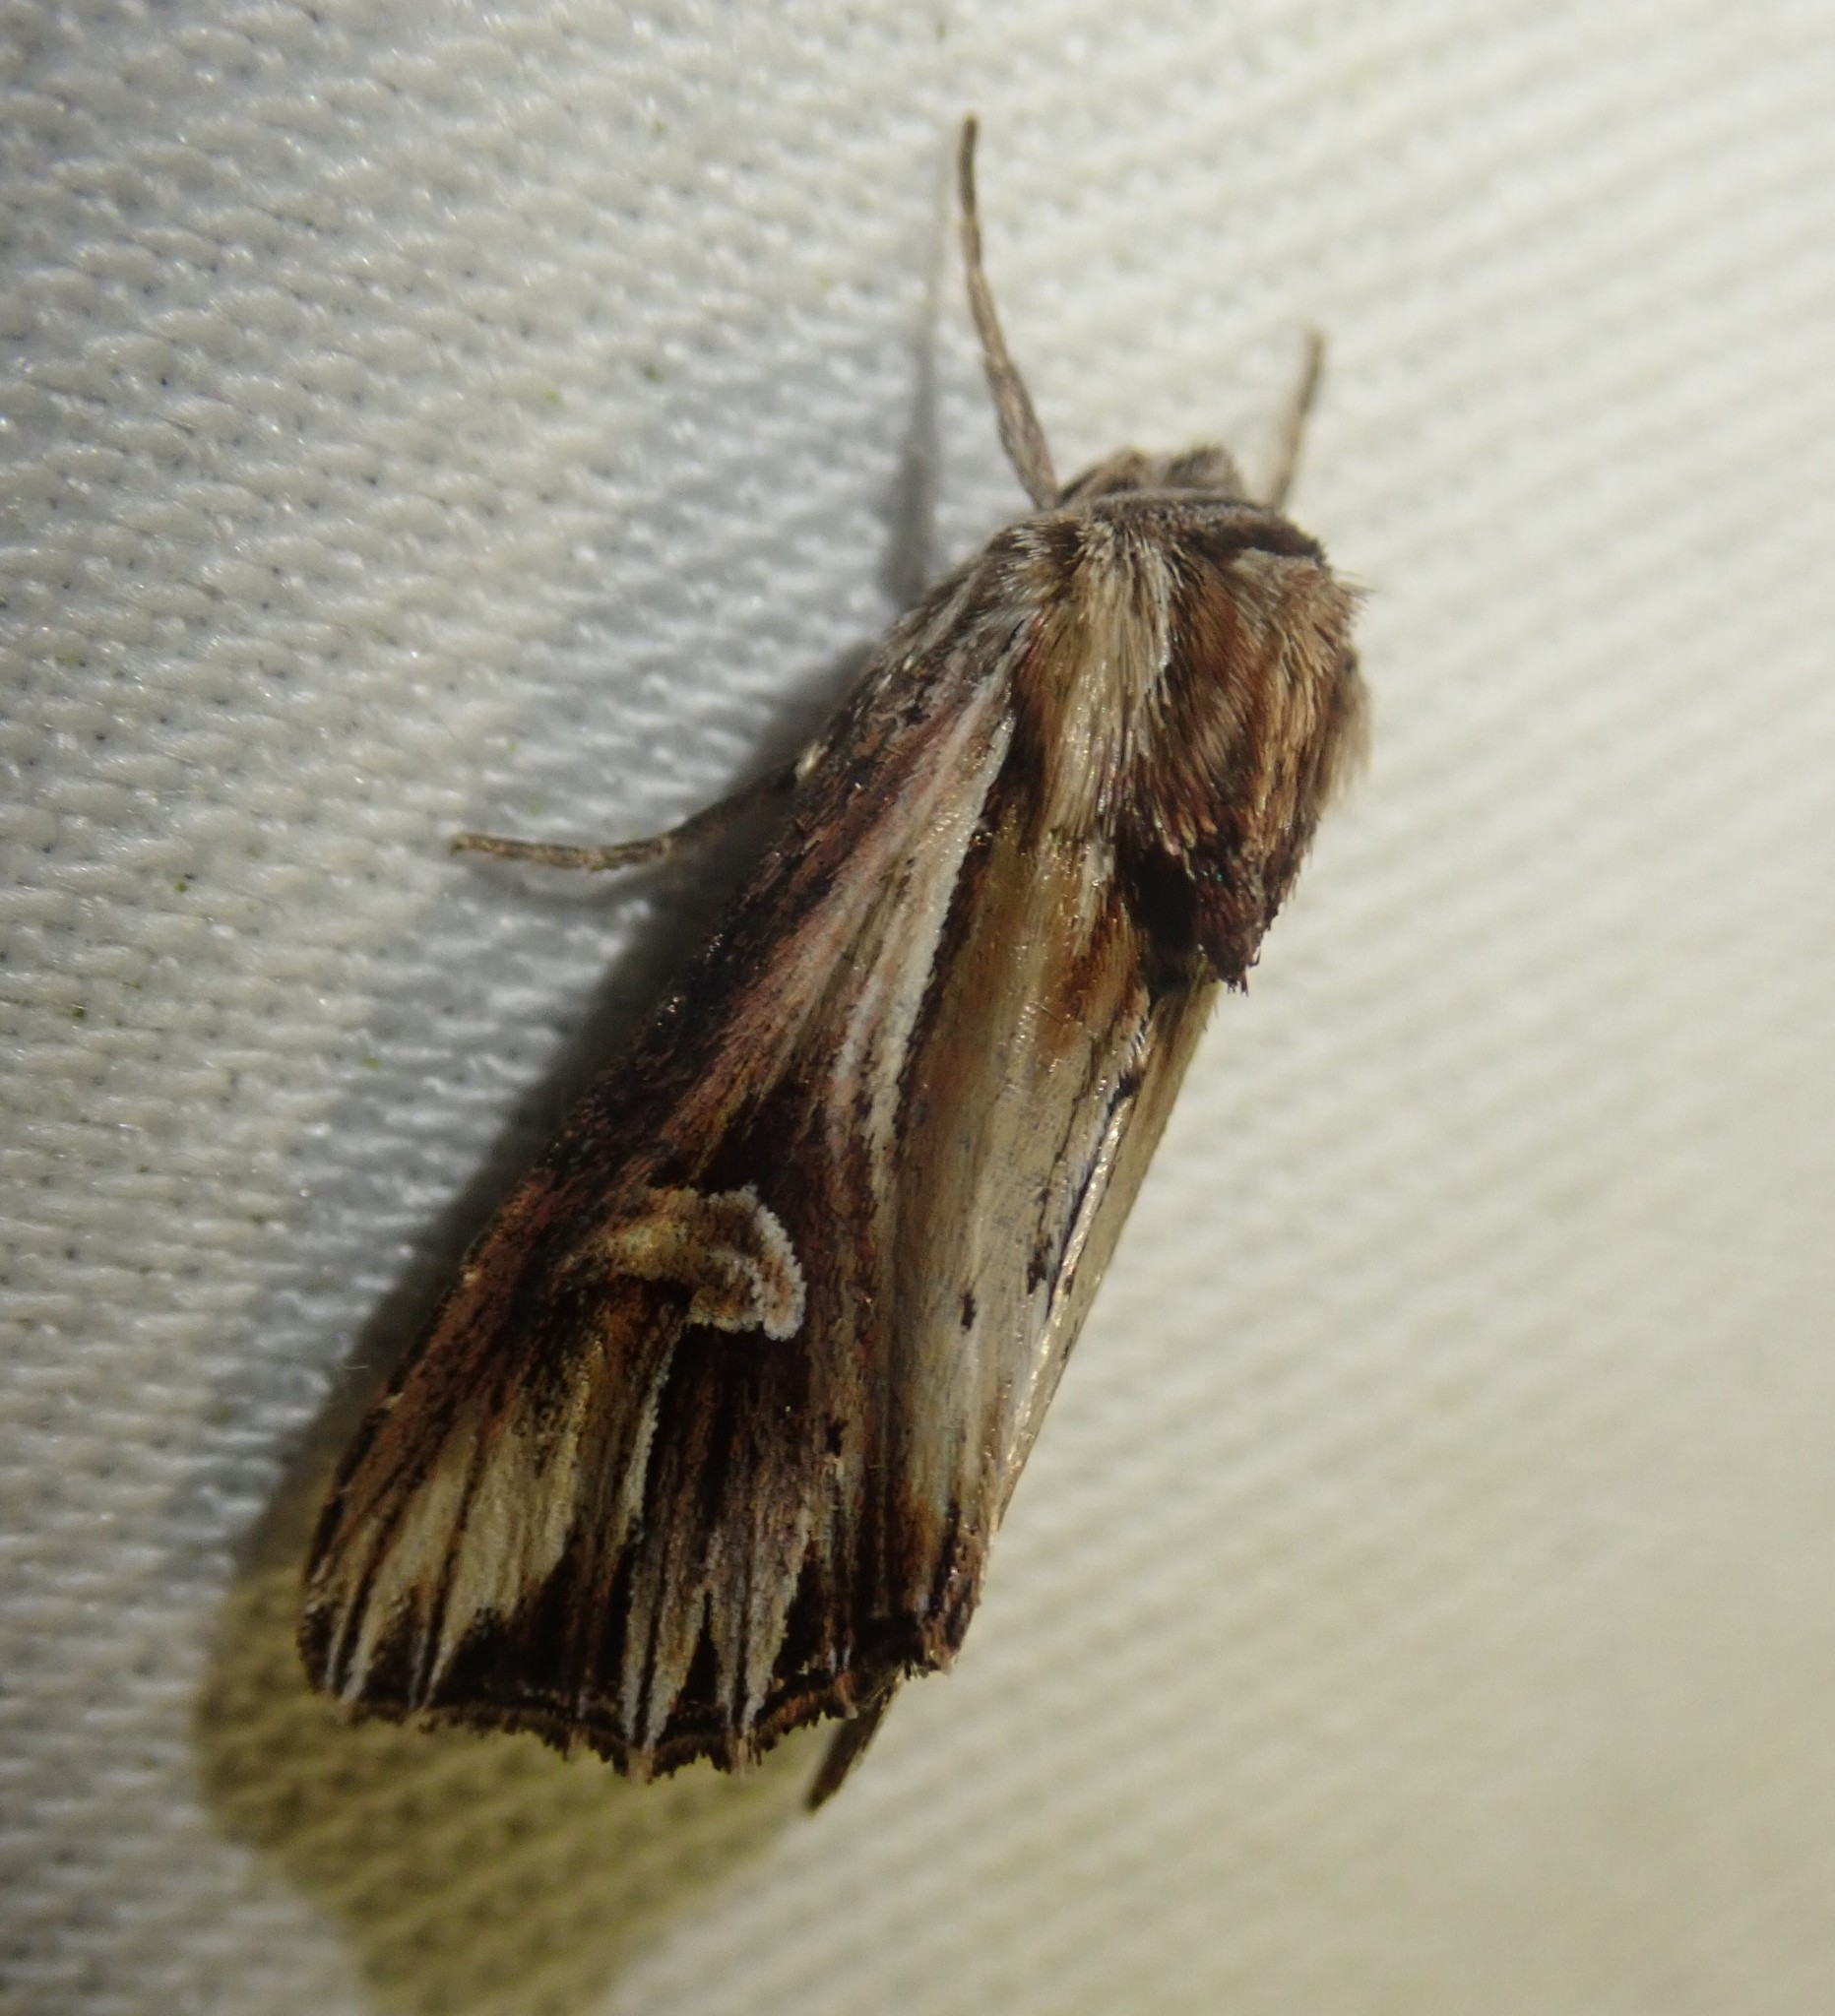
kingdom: Animalia
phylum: Arthropoda
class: Insecta
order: Lepidoptera
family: Noctuidae
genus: Actinotia
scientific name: Actinotia polyodon
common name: Purple cloud
